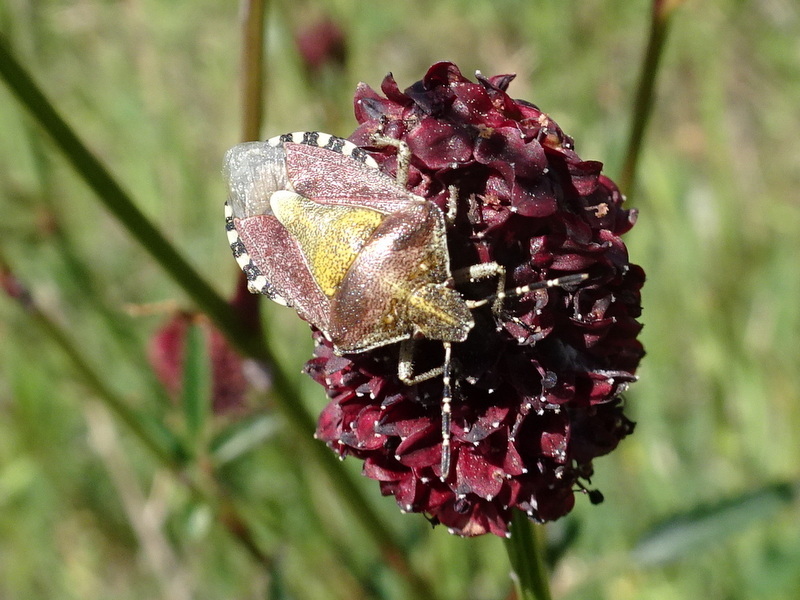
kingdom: Animalia
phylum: Arthropoda
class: Insecta
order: Hemiptera
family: Pentatomidae
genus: Dolycoris
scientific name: Dolycoris baccarum
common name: Sloe bug
